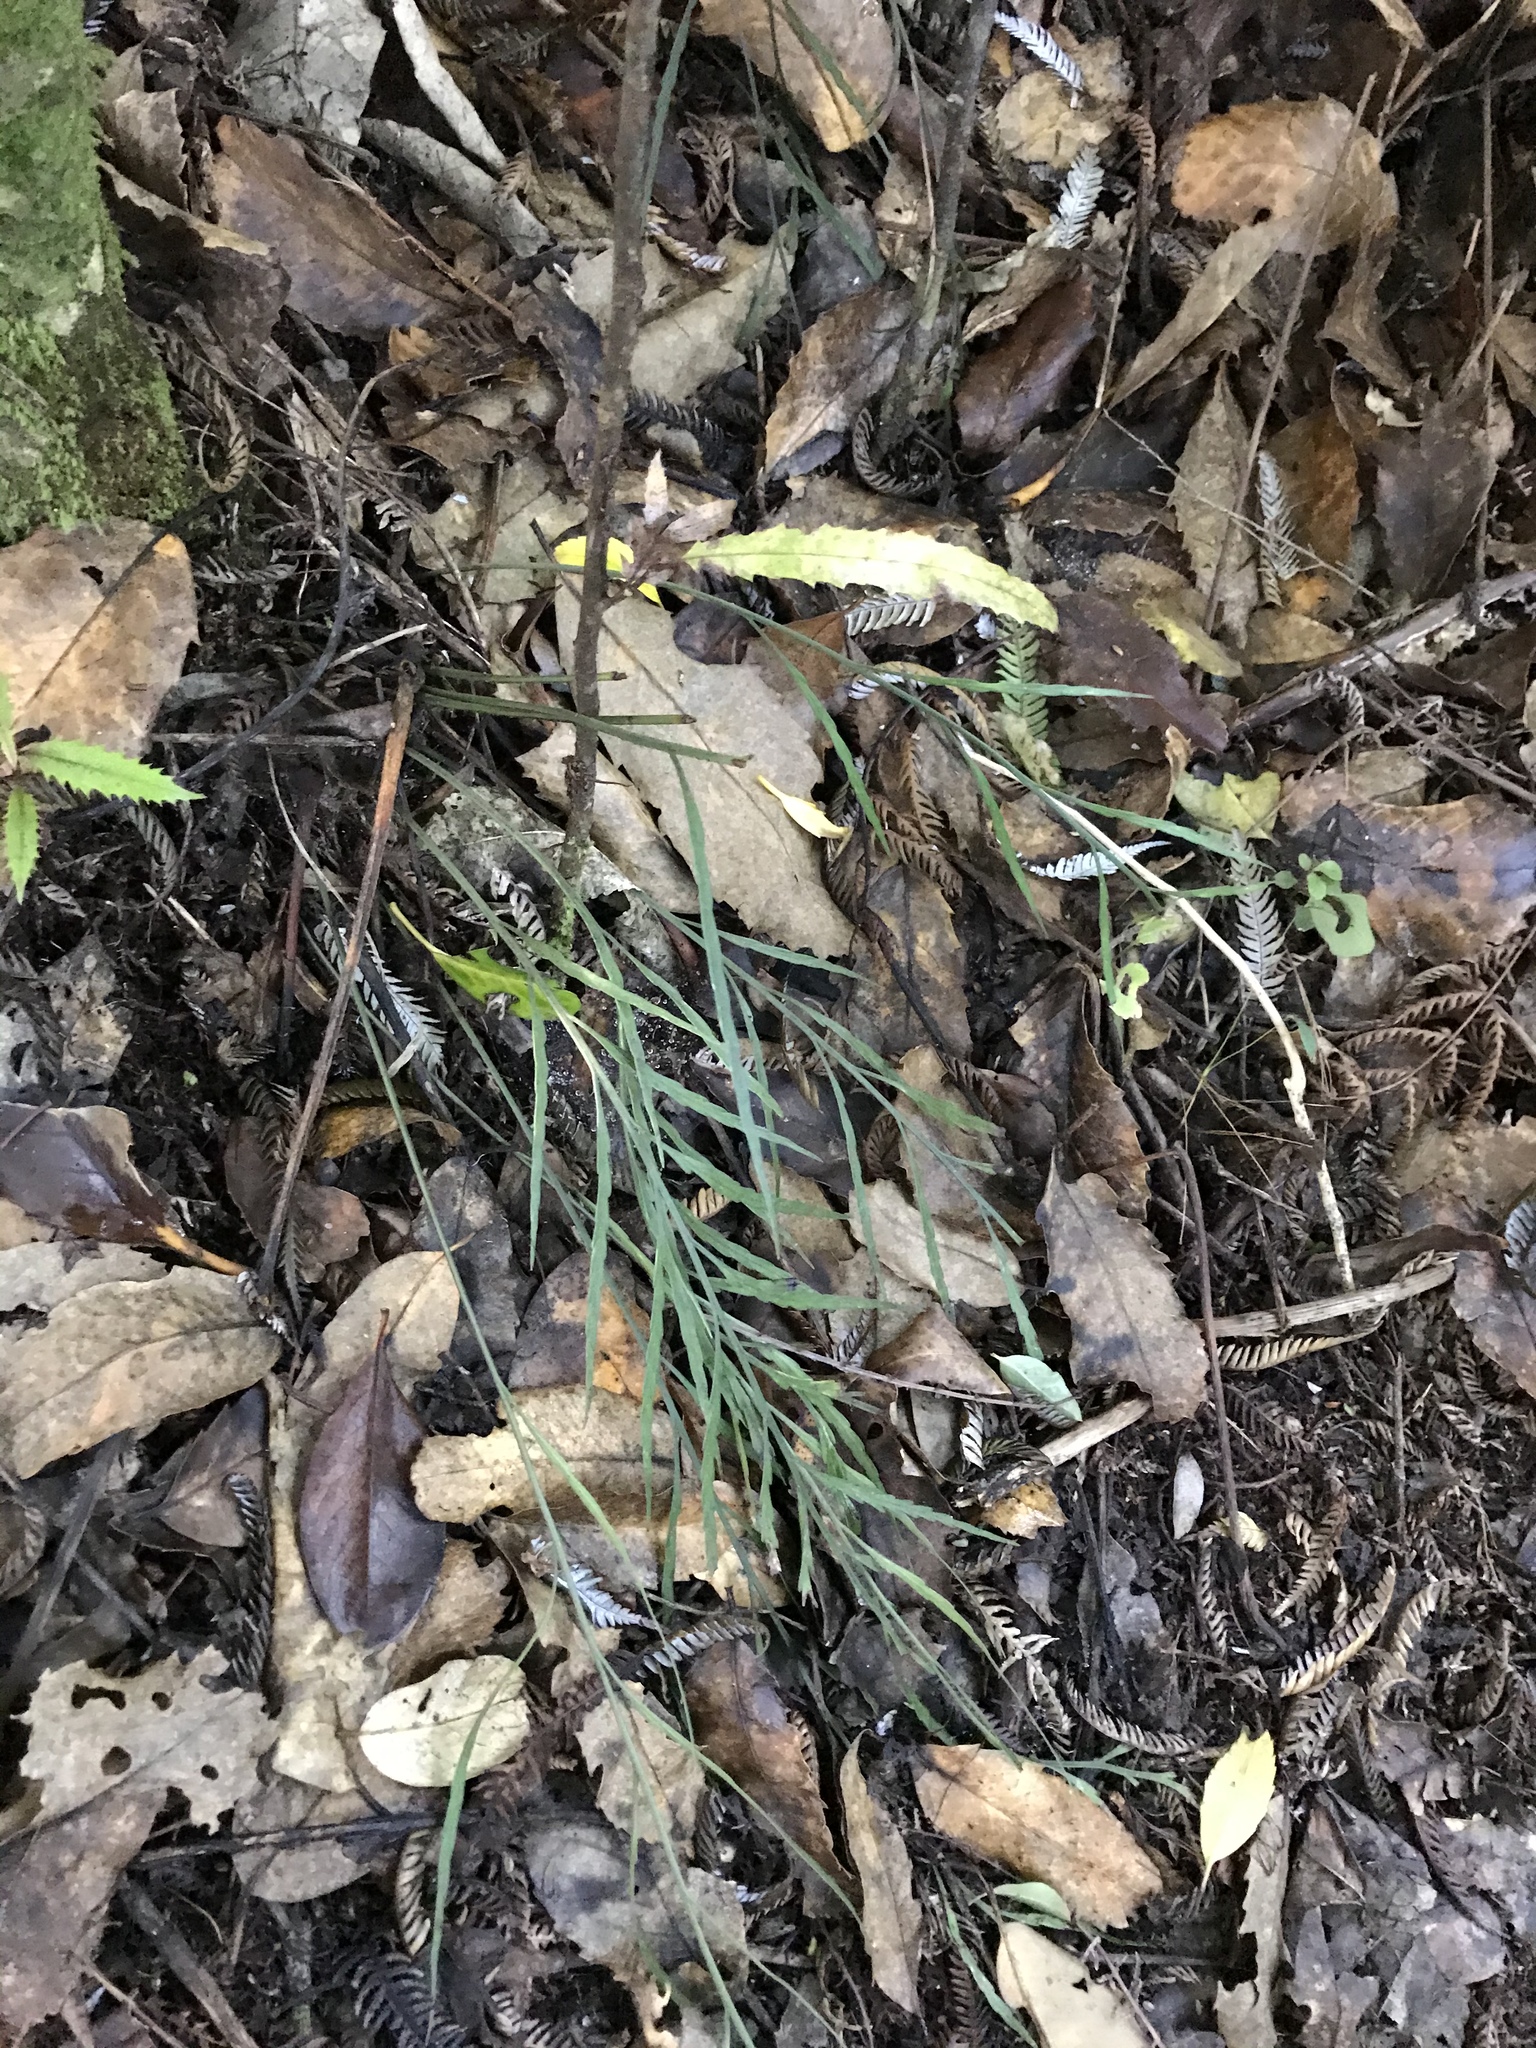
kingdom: Plantae
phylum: Tracheophyta
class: Polypodiopsida
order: Polypodiales
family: Aspleniaceae
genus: Asplenium
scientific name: Asplenium flaccidum
